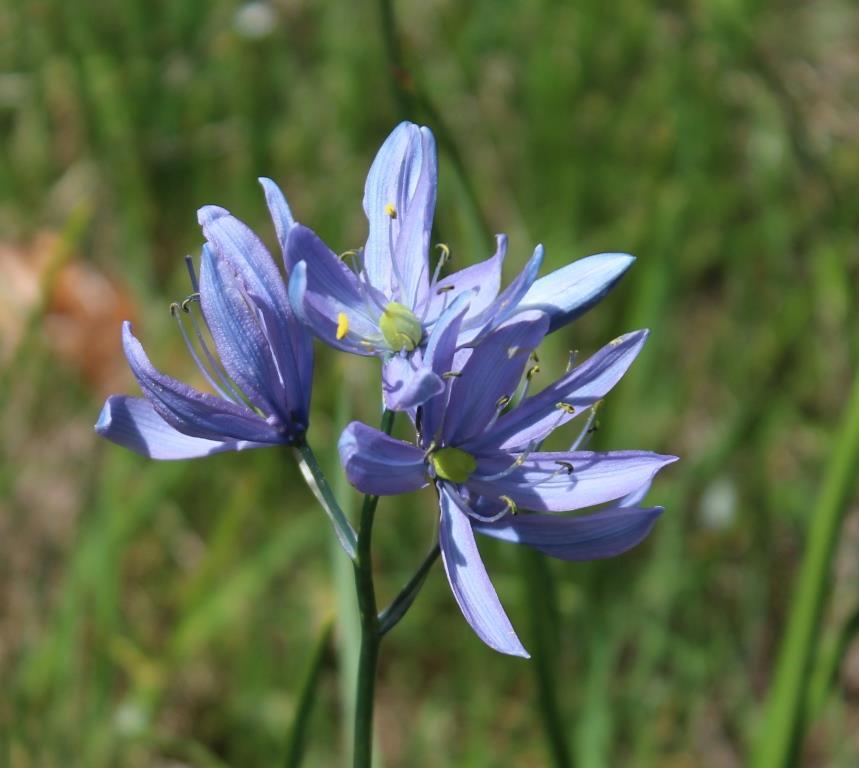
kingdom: Plantae
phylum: Tracheophyta
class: Liliopsida
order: Asparagales
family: Asparagaceae
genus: Camassia
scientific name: Camassia quamash
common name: Common camas
